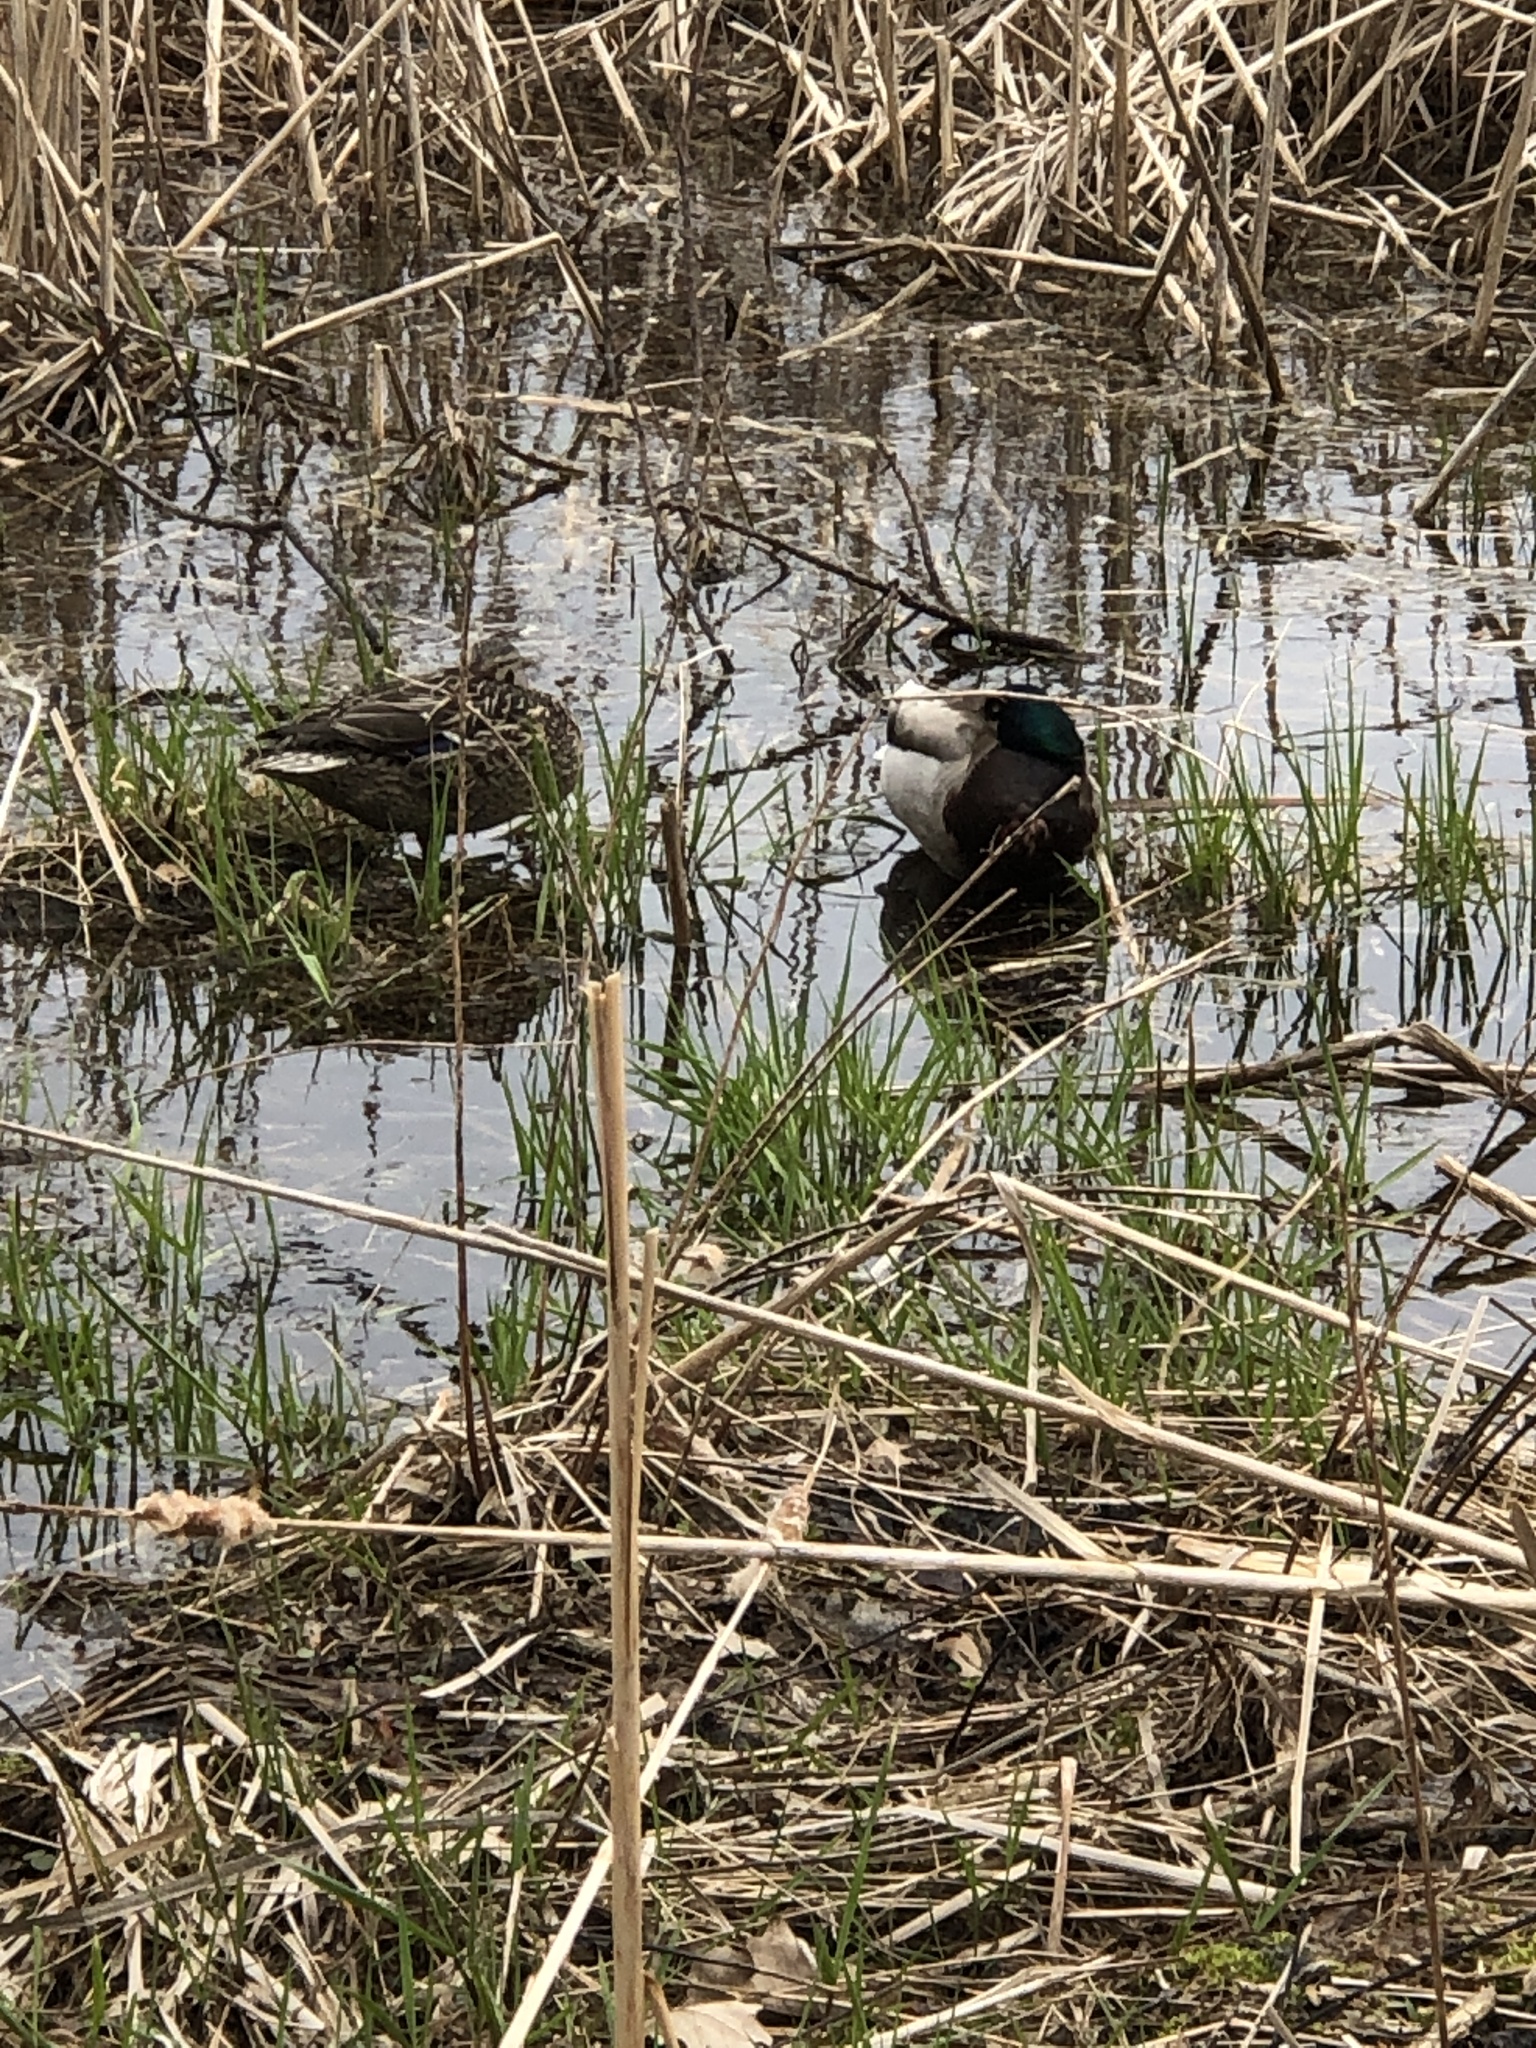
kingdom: Animalia
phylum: Chordata
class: Aves
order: Anseriformes
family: Anatidae
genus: Anas
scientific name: Anas platyrhynchos
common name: Mallard
